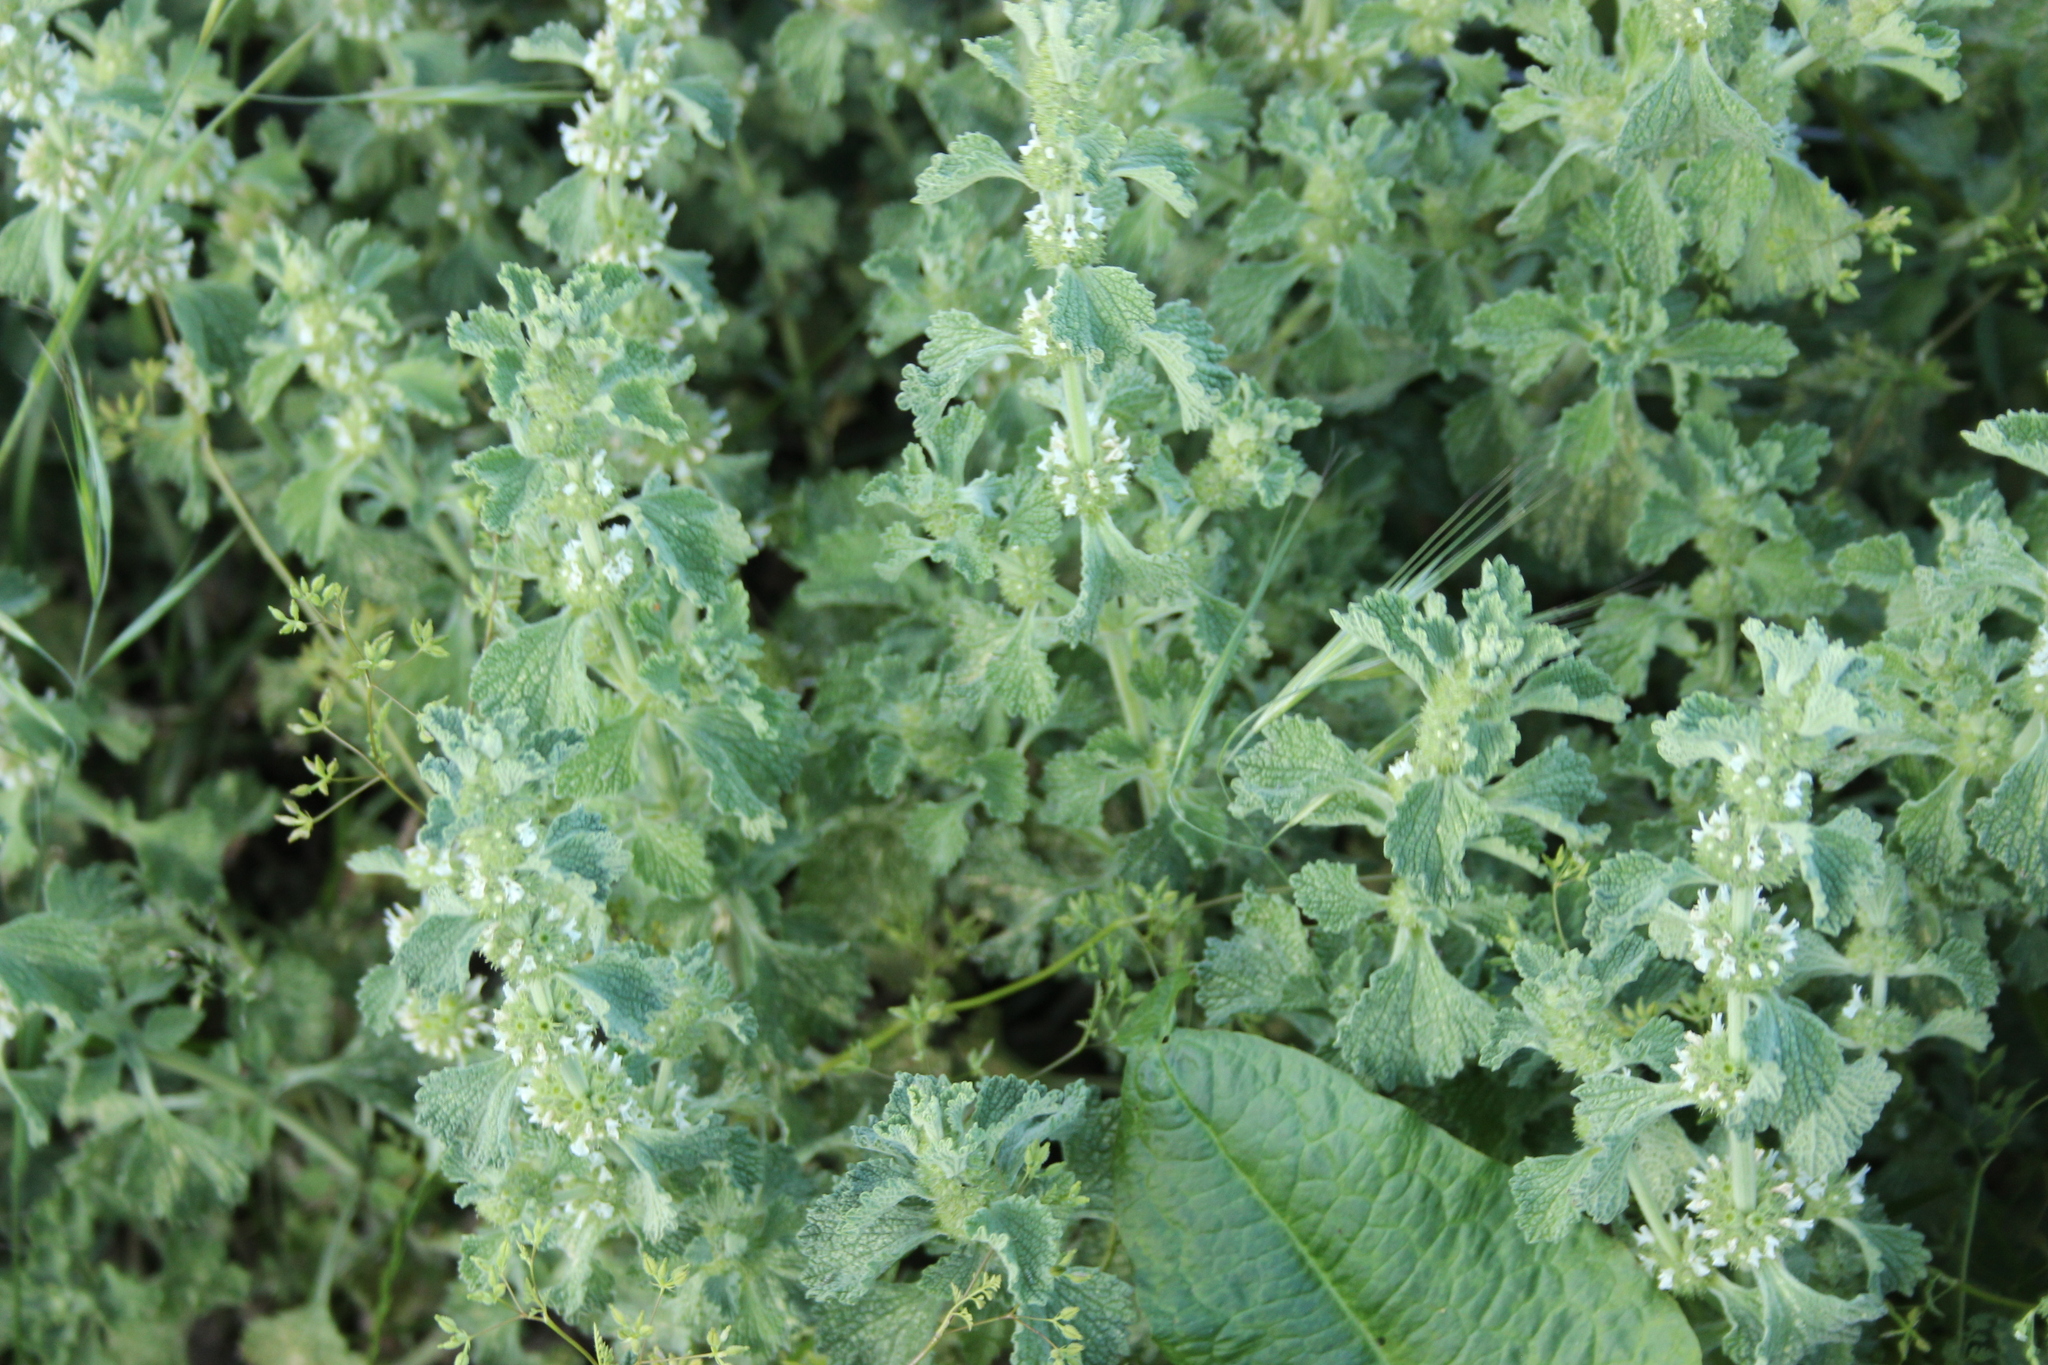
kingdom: Plantae
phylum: Tracheophyta
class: Magnoliopsida
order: Lamiales
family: Lamiaceae
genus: Marrubium
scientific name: Marrubium vulgare
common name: Horehound
